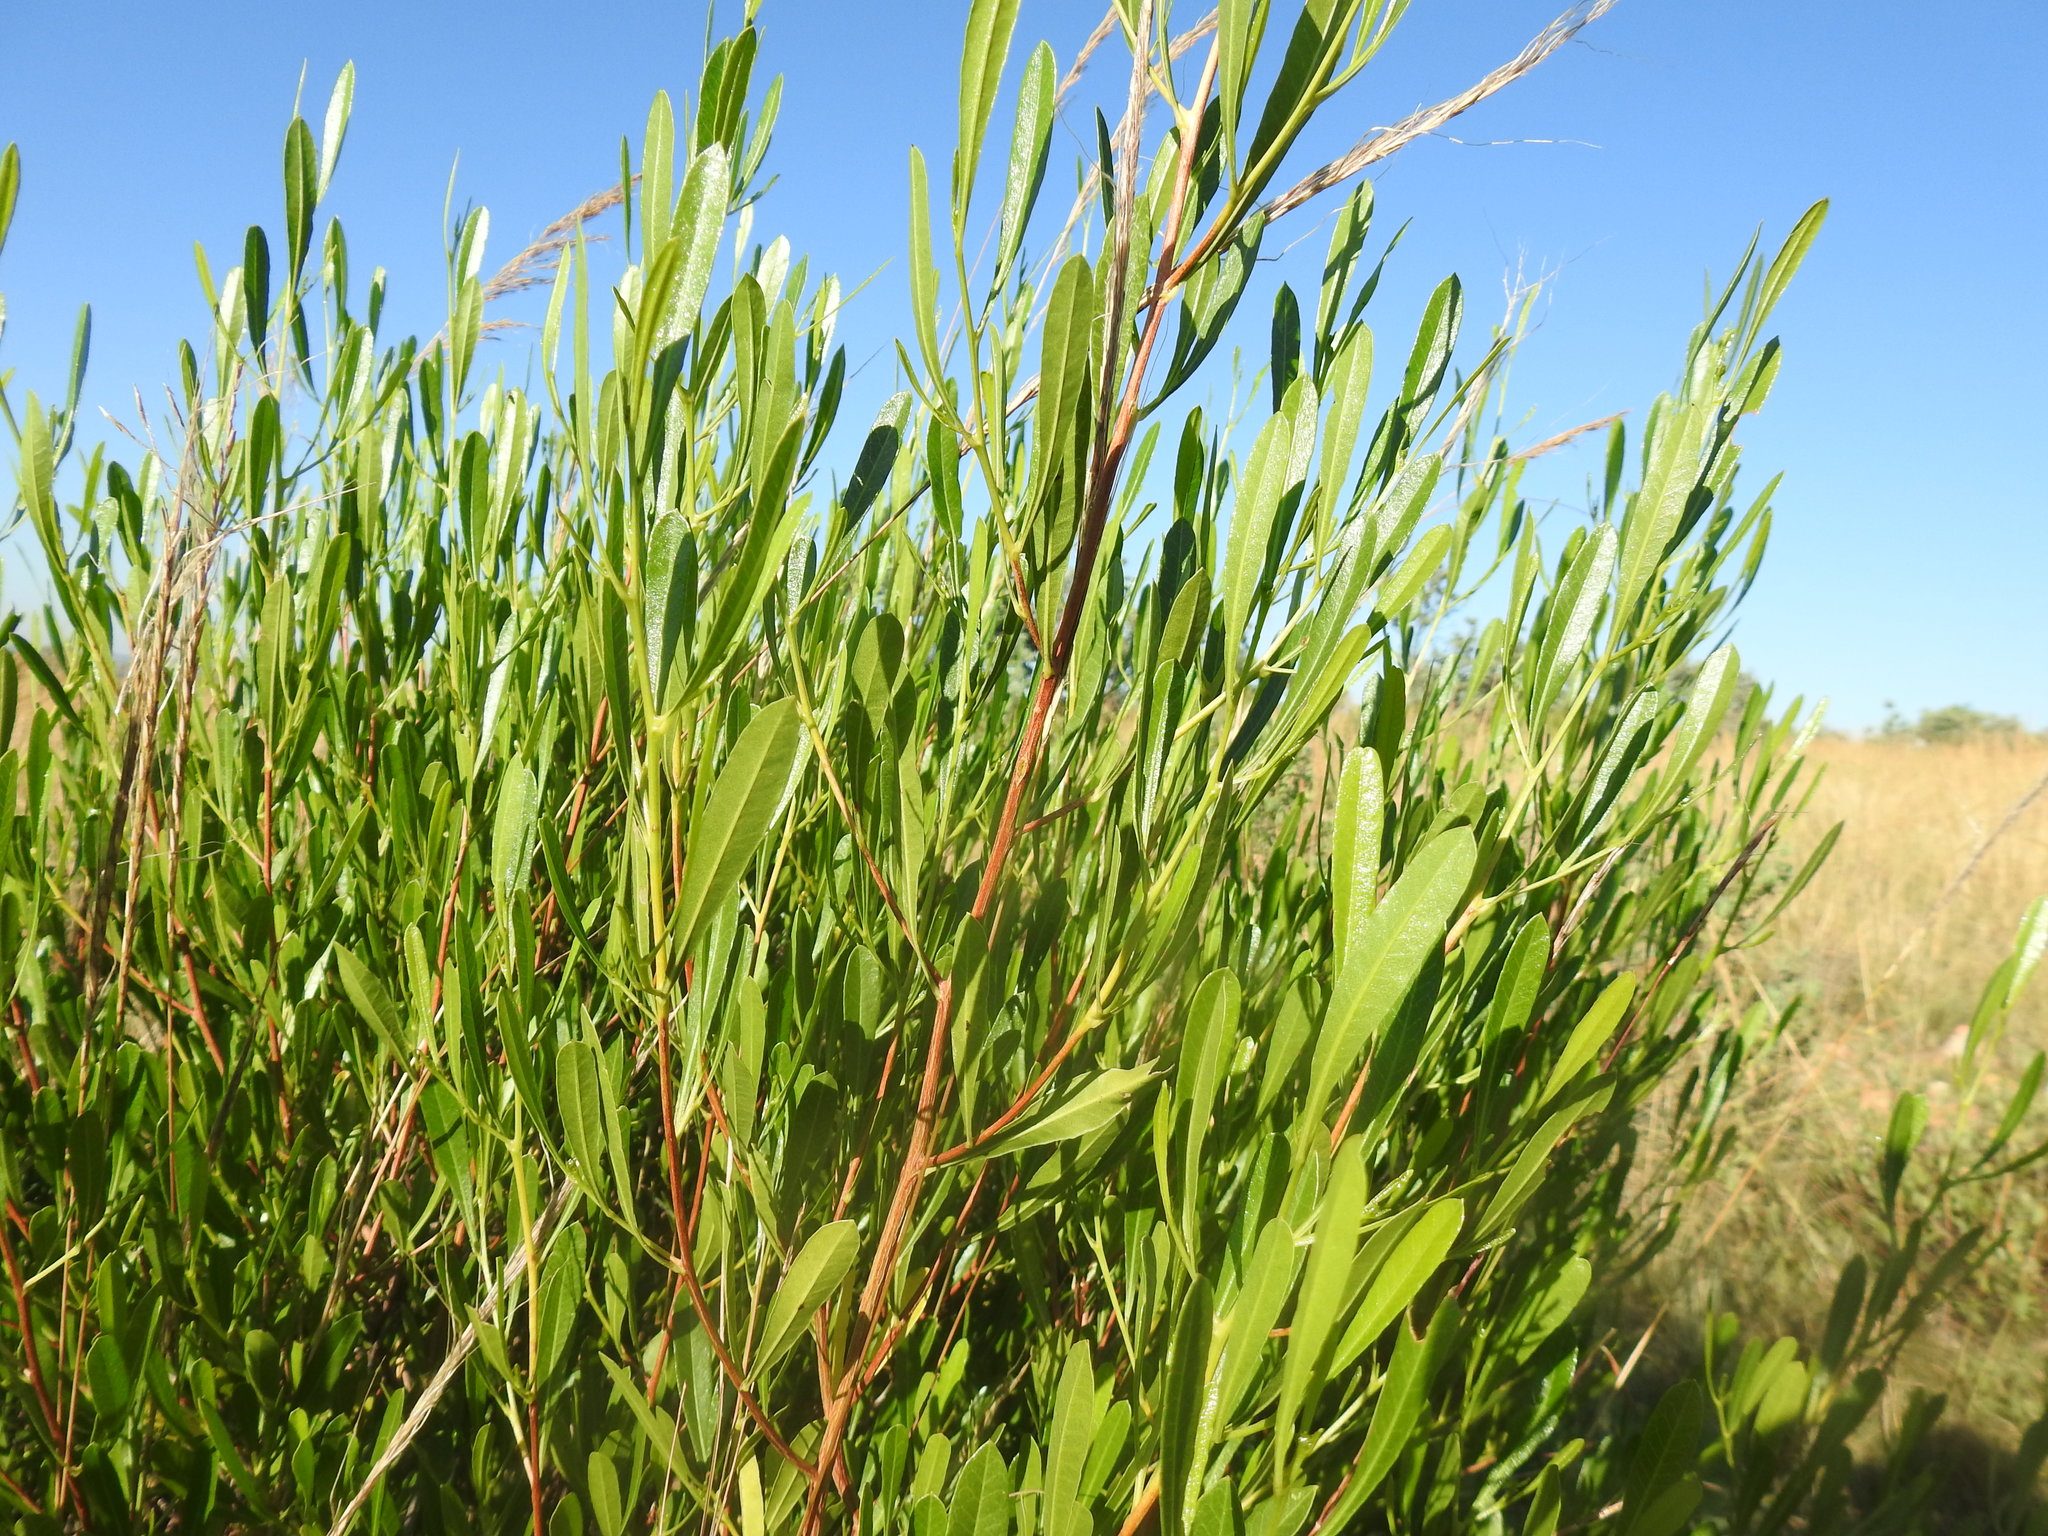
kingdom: Plantae
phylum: Tracheophyta
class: Magnoliopsida
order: Sapindales
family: Sapindaceae
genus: Dodonaea
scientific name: Dodonaea viscosa
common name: Hopbush
